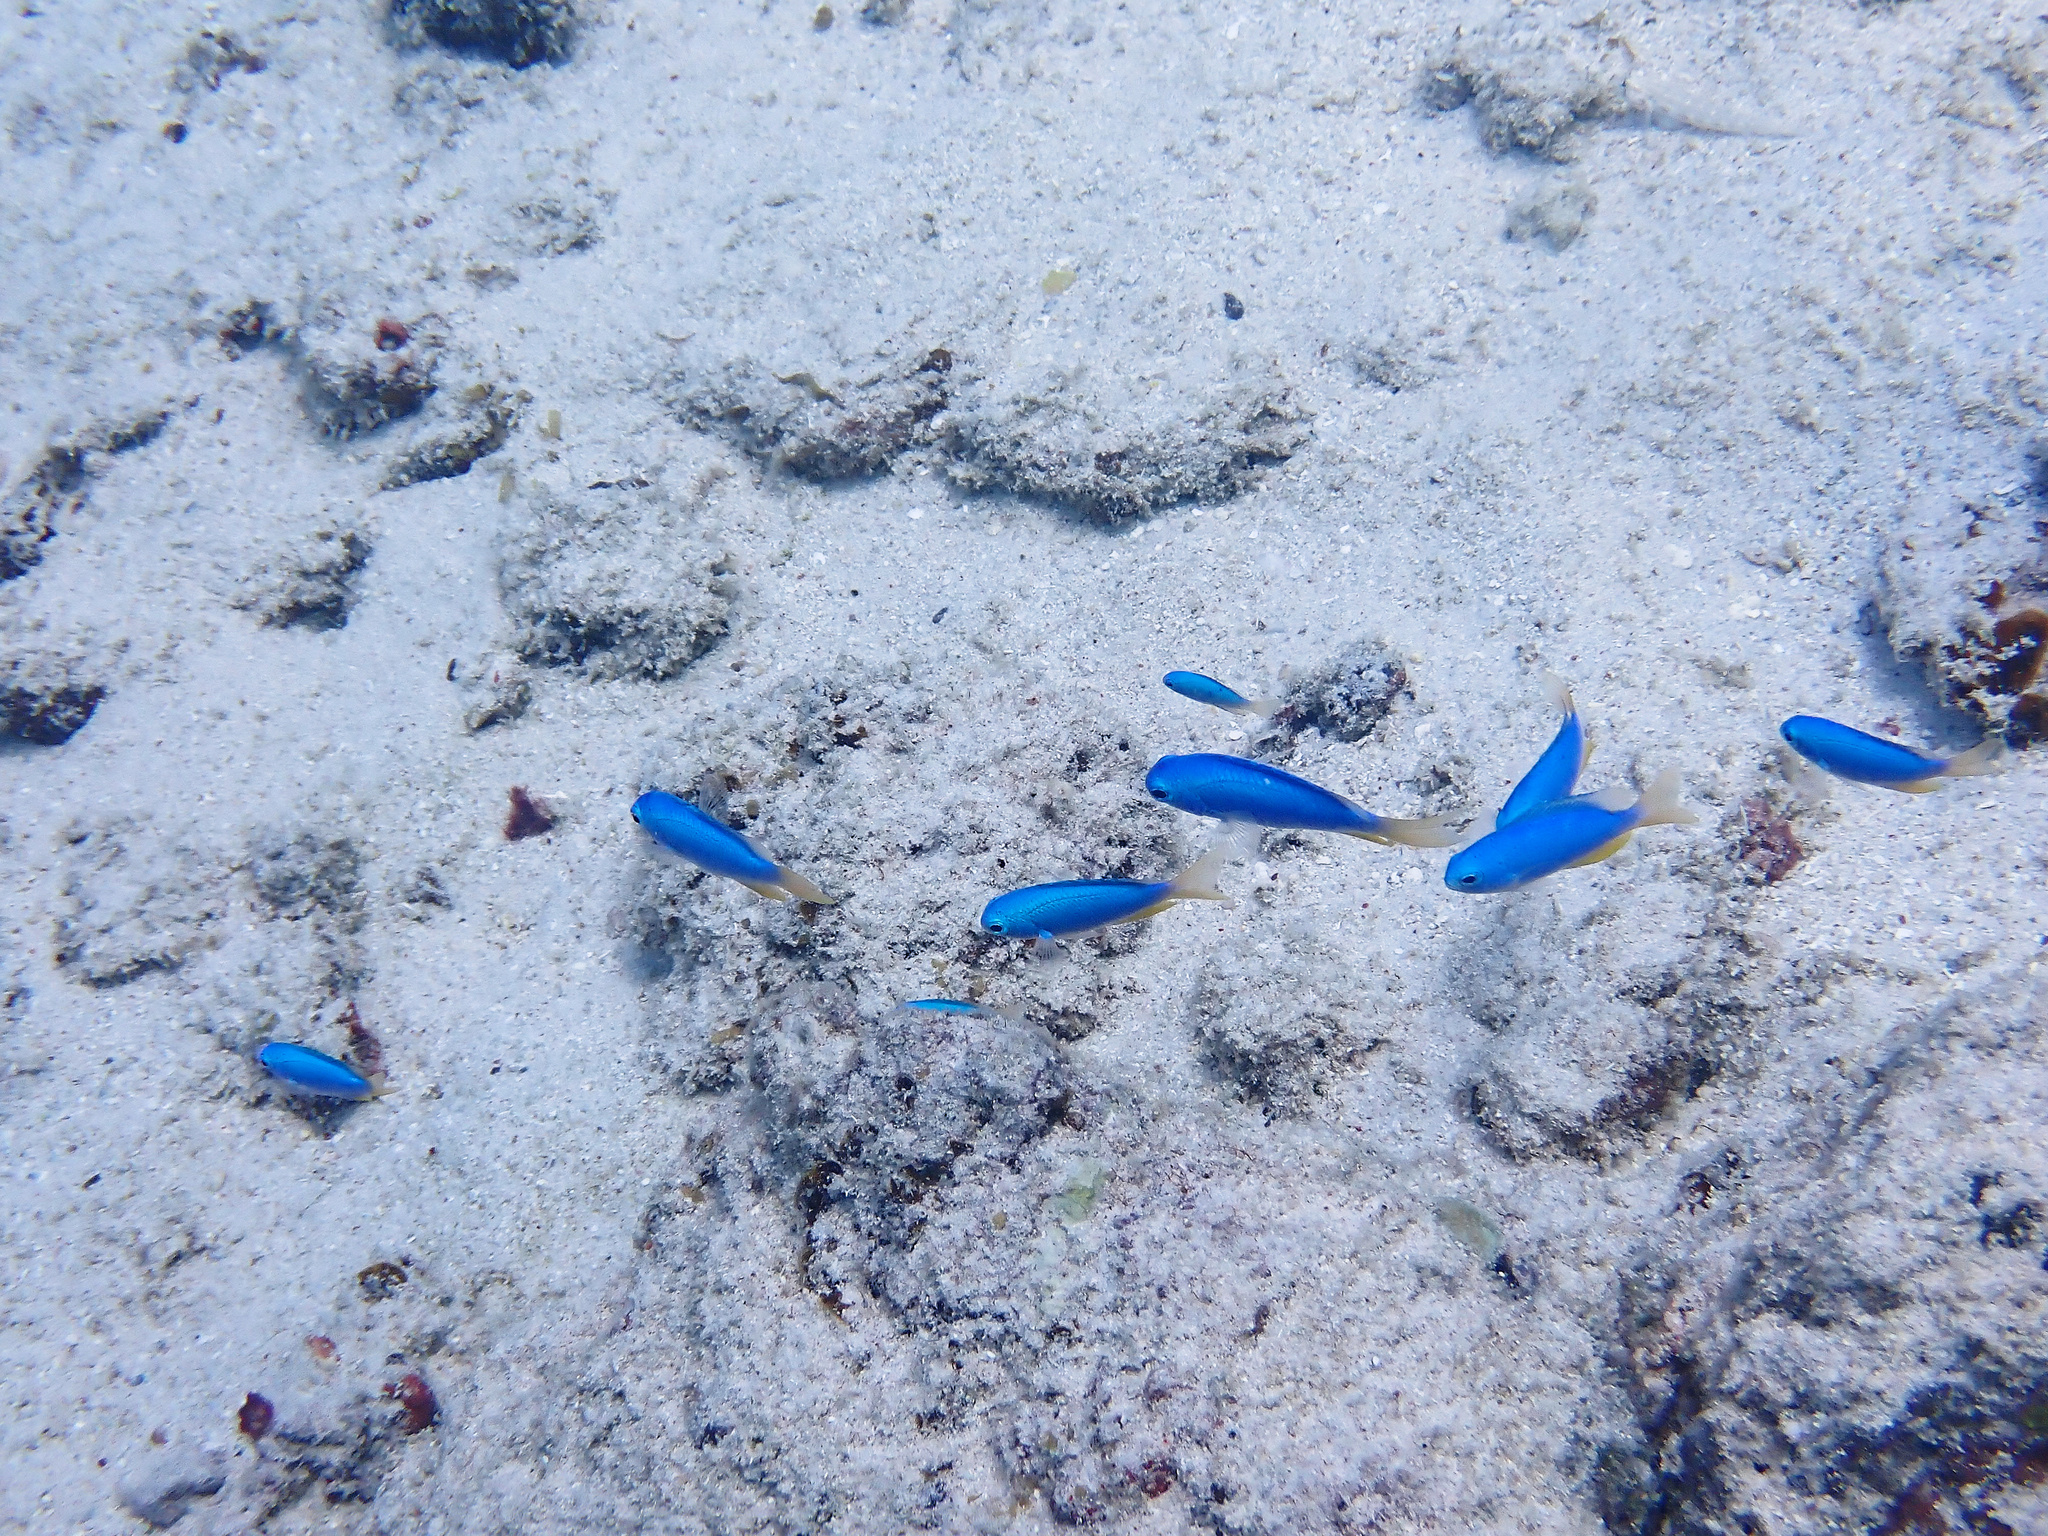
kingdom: Animalia
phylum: Chordata
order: Perciformes
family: Pomacentridae
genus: Pomacentrus
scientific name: Pomacentrus coelestis
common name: Neon damsel
